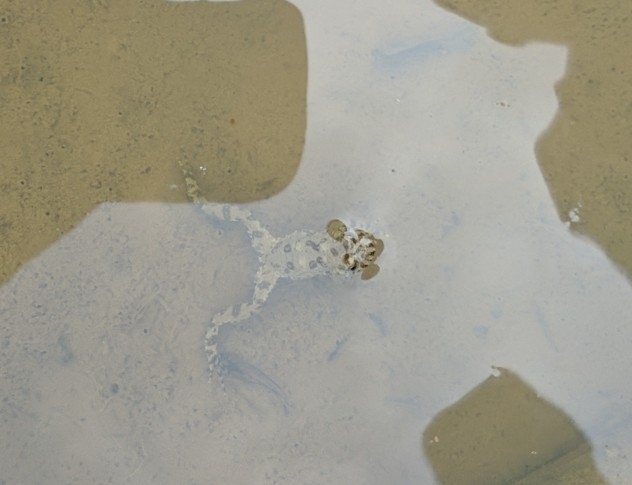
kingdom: Animalia
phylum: Chordata
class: Amphibia
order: Anura
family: Bombinatoridae
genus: Bombina
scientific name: Bombina variegata
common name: Yellow-bellied toad
